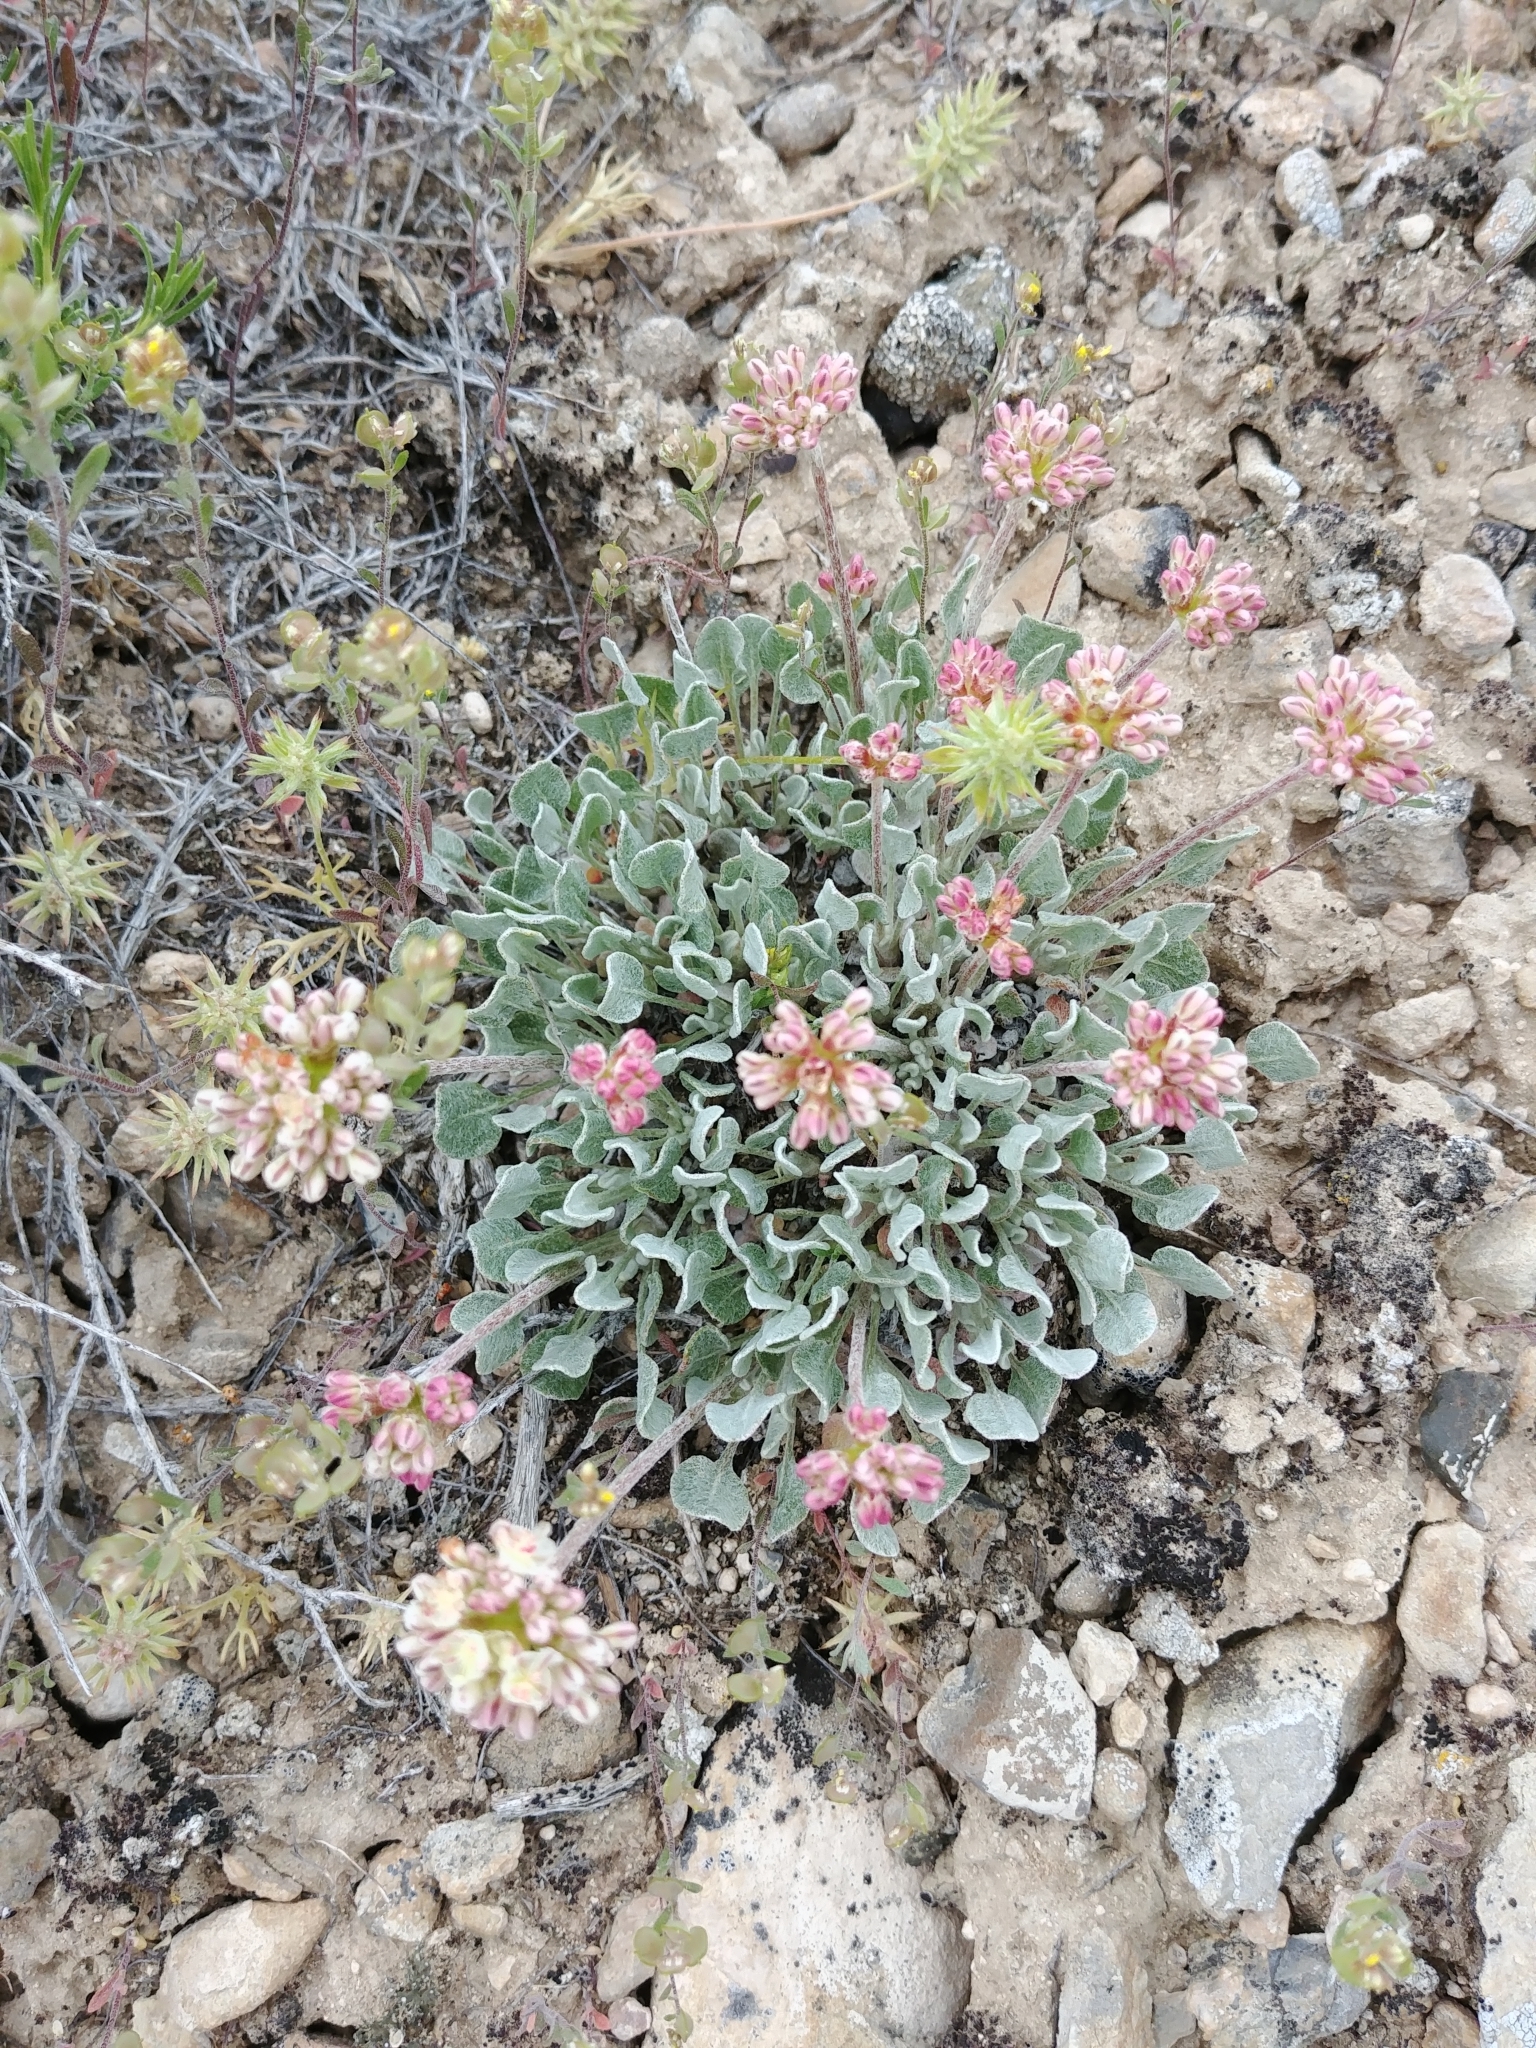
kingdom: Plantae
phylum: Tracheophyta
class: Magnoliopsida
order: Caryophyllales
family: Polygonaceae
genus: Eriogonum
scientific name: Eriogonum ovalifolium
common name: Cushion buckwheat
